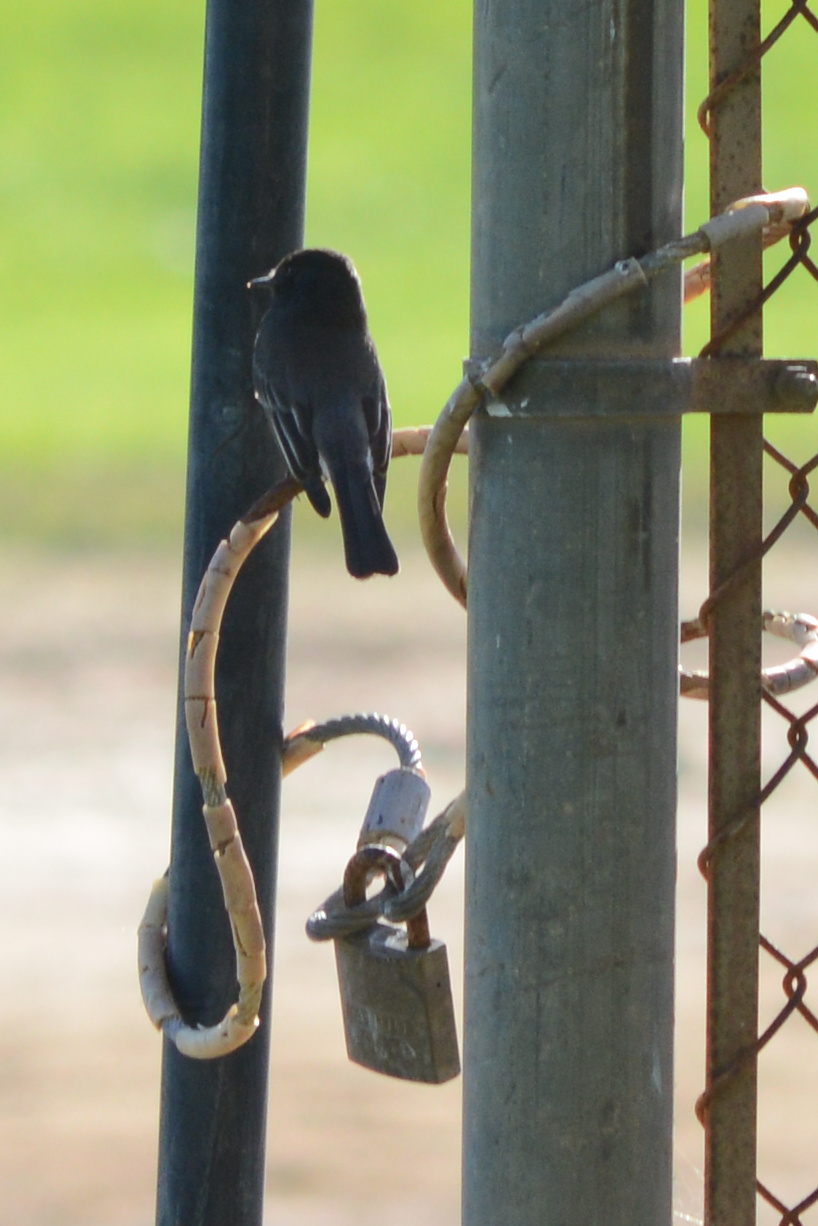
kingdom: Animalia
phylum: Chordata
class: Aves
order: Passeriformes
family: Tyrannidae
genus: Sayornis
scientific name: Sayornis nigricans
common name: Black phoebe
